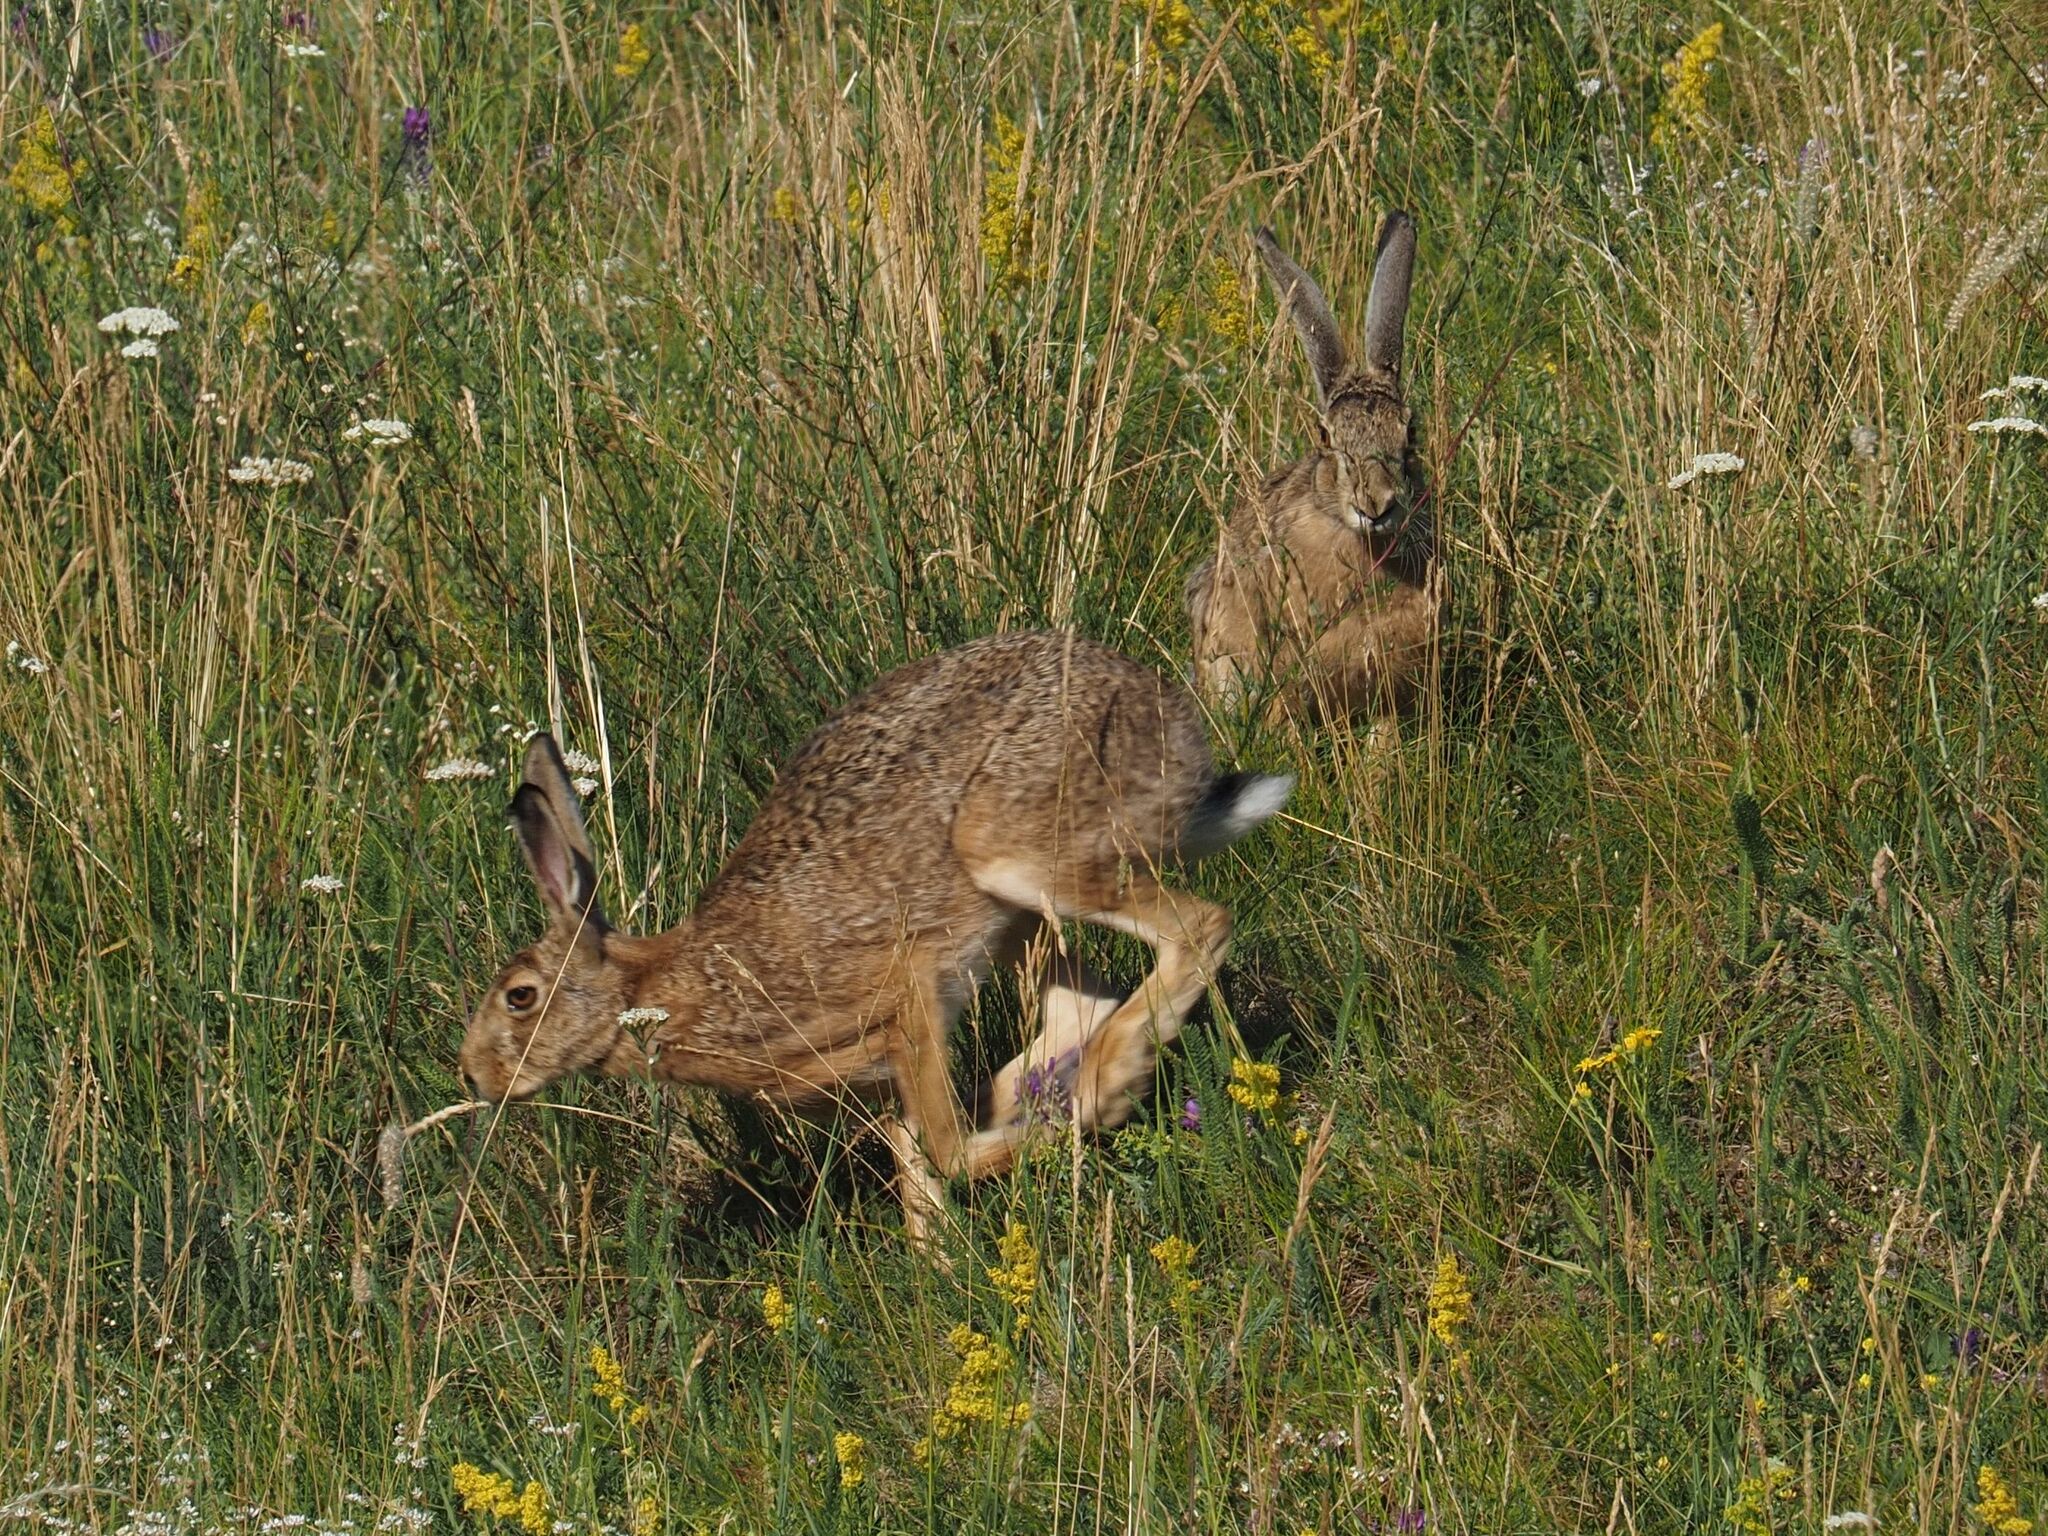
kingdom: Animalia
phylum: Chordata
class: Mammalia
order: Lagomorpha
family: Leporidae
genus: Lepus
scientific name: Lepus europaeus
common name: European hare
